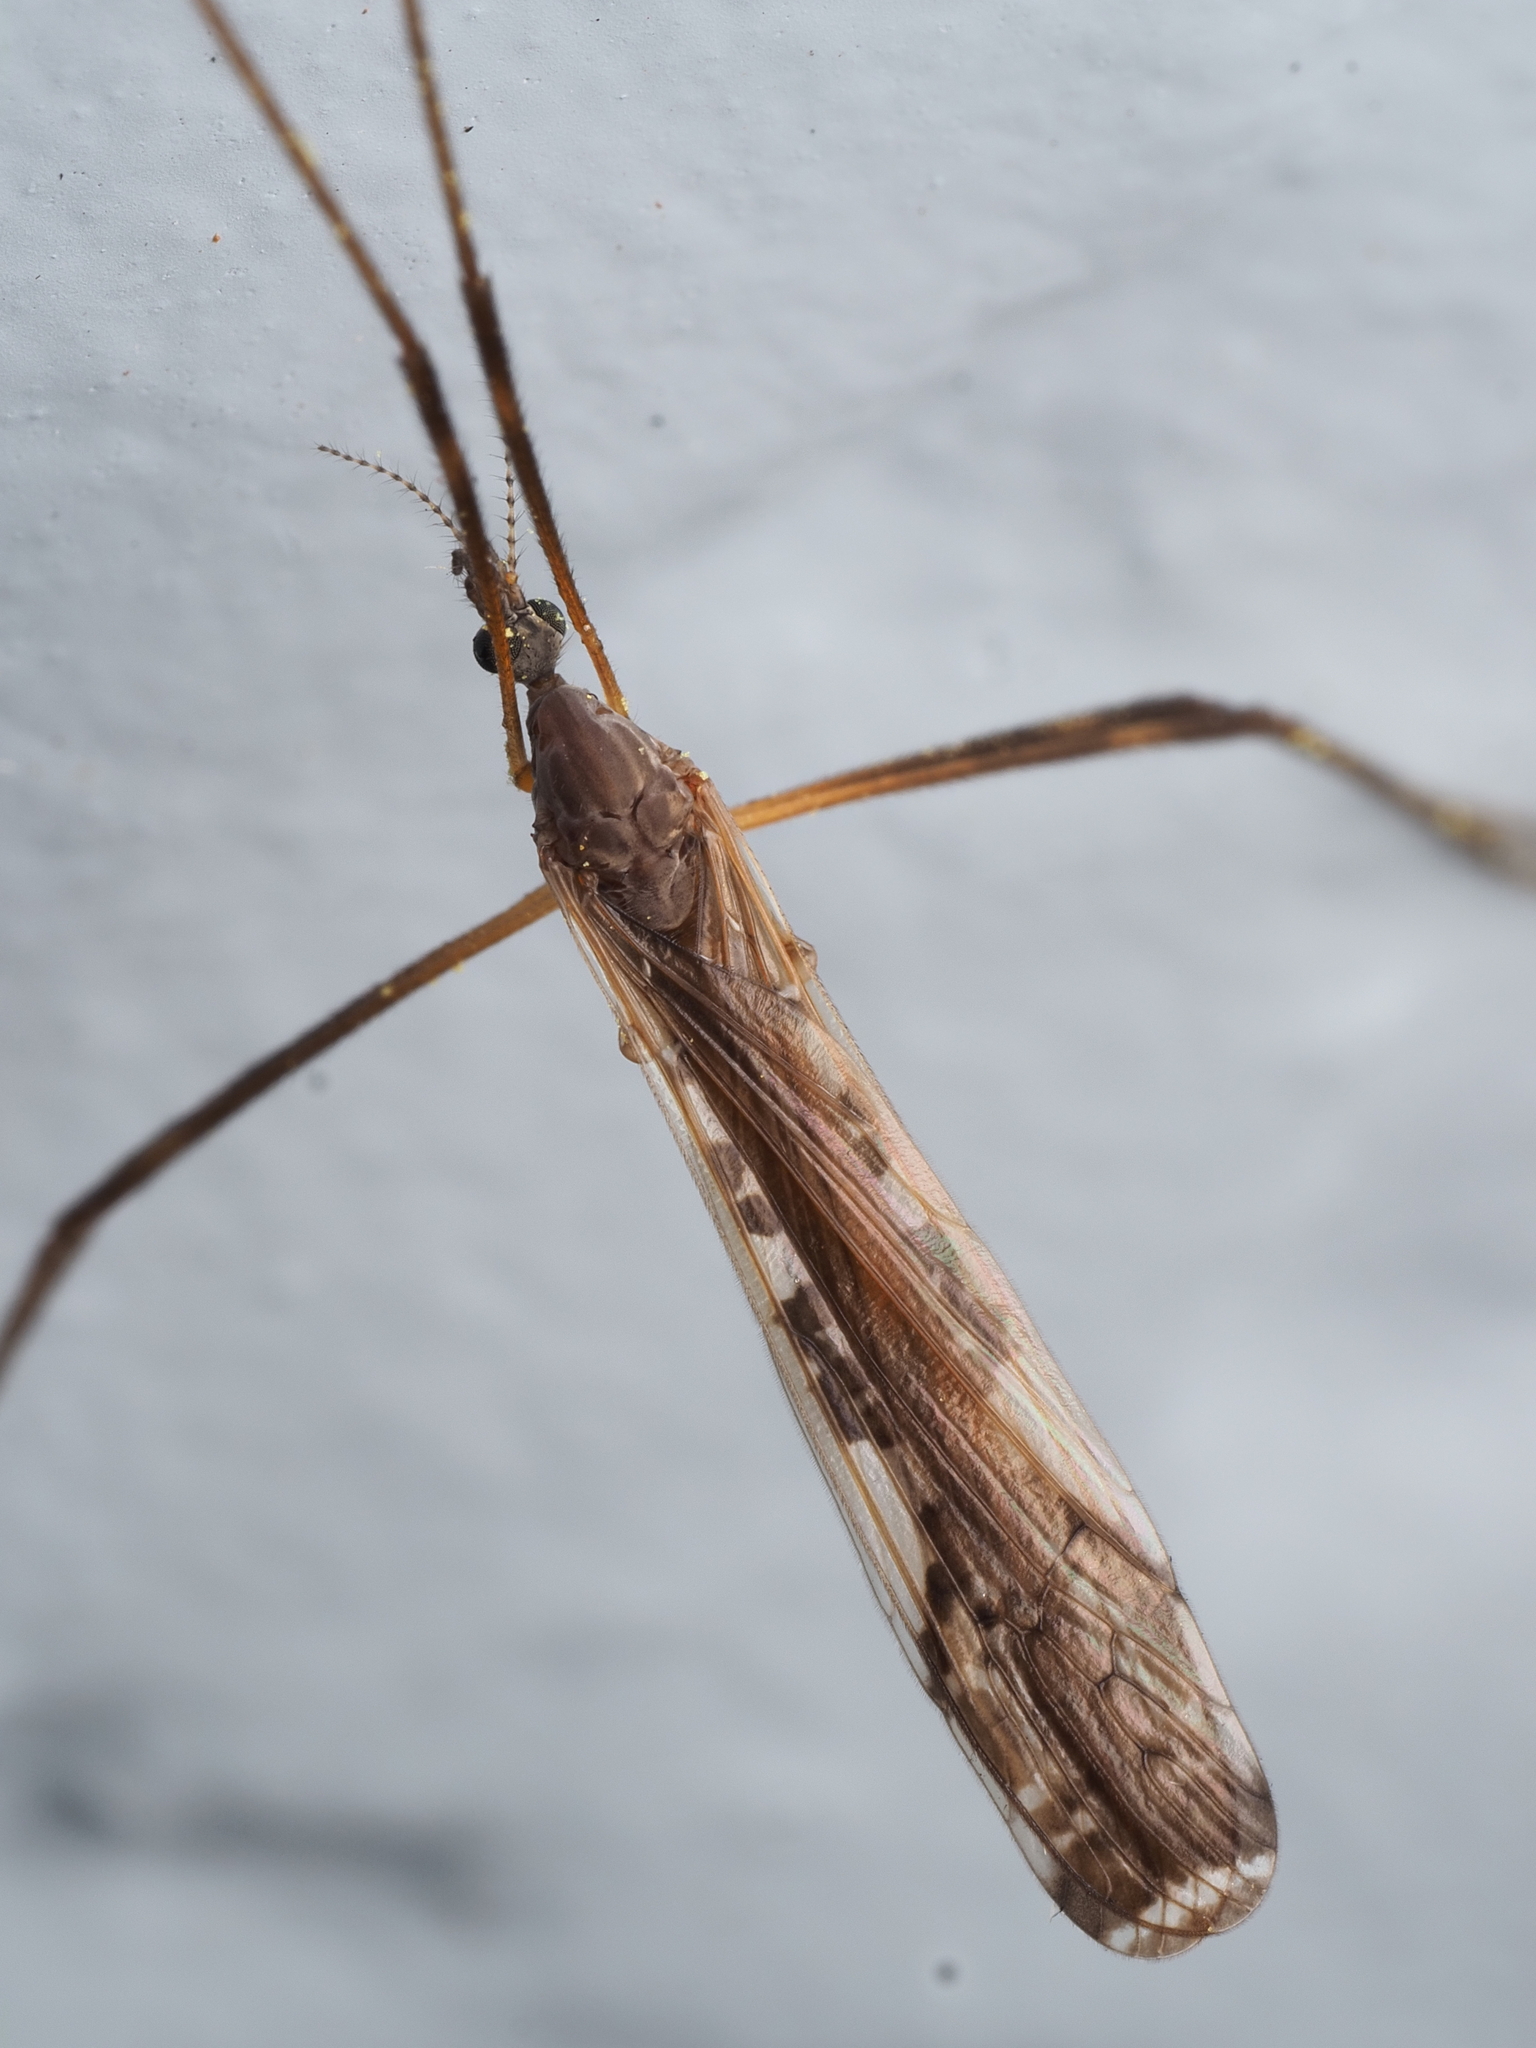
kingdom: Animalia
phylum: Arthropoda
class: Insecta
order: Diptera
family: Limoniidae
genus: Paralimnophila
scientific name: Paralimnophila skusei
